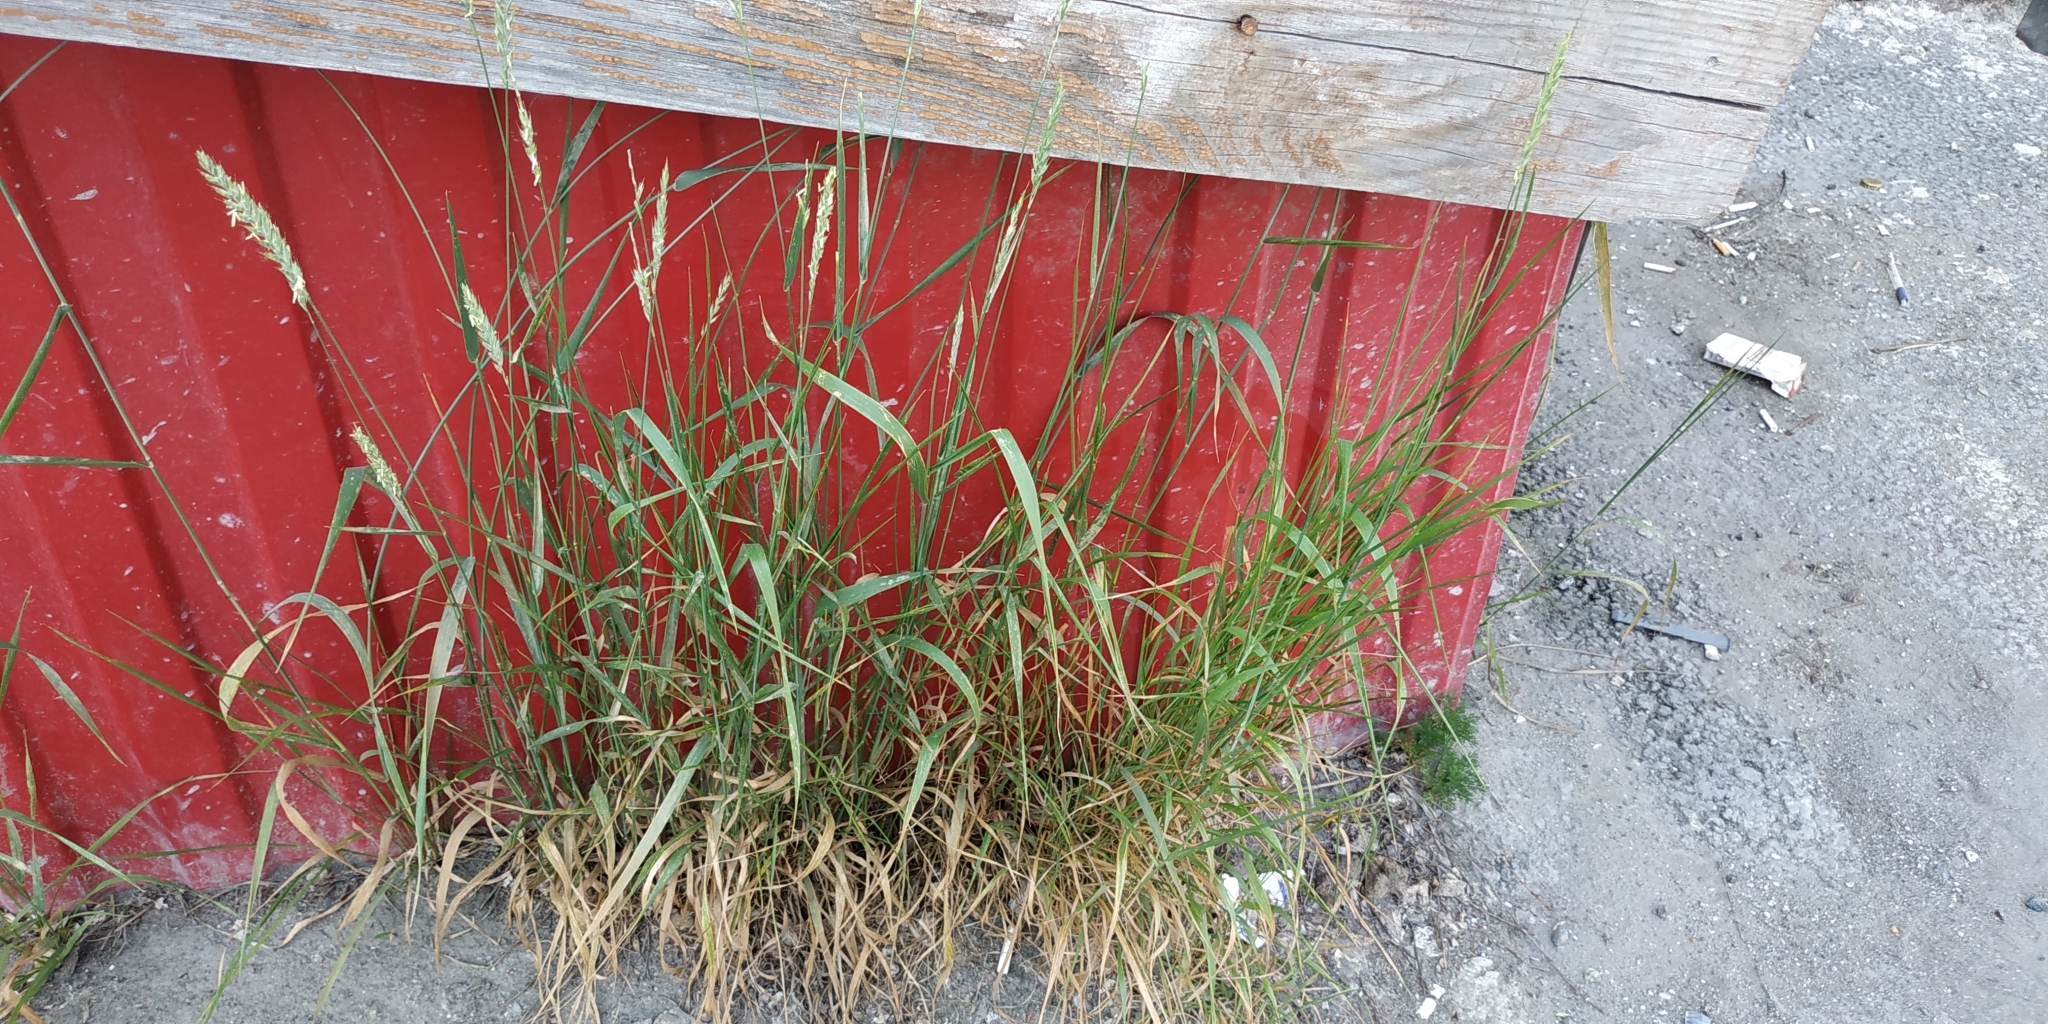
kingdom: Plantae
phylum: Tracheophyta
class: Liliopsida
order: Poales
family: Poaceae
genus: Elymus
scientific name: Elymus repens
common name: Quackgrass
